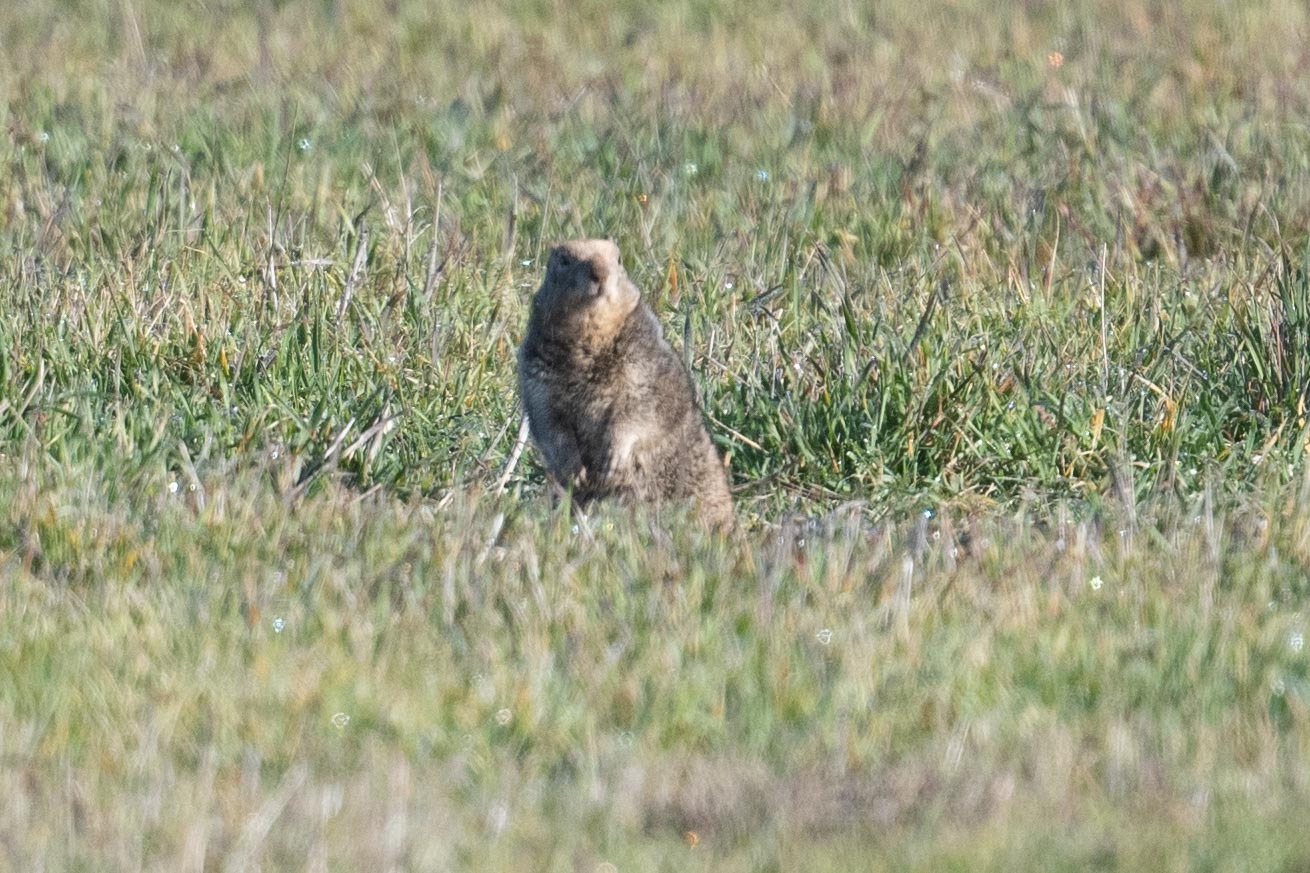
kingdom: Animalia
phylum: Chordata
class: Mammalia
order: Rodentia
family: Sciuridae
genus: Otospermophilus
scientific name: Otospermophilus beecheyi
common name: California ground squirrel
